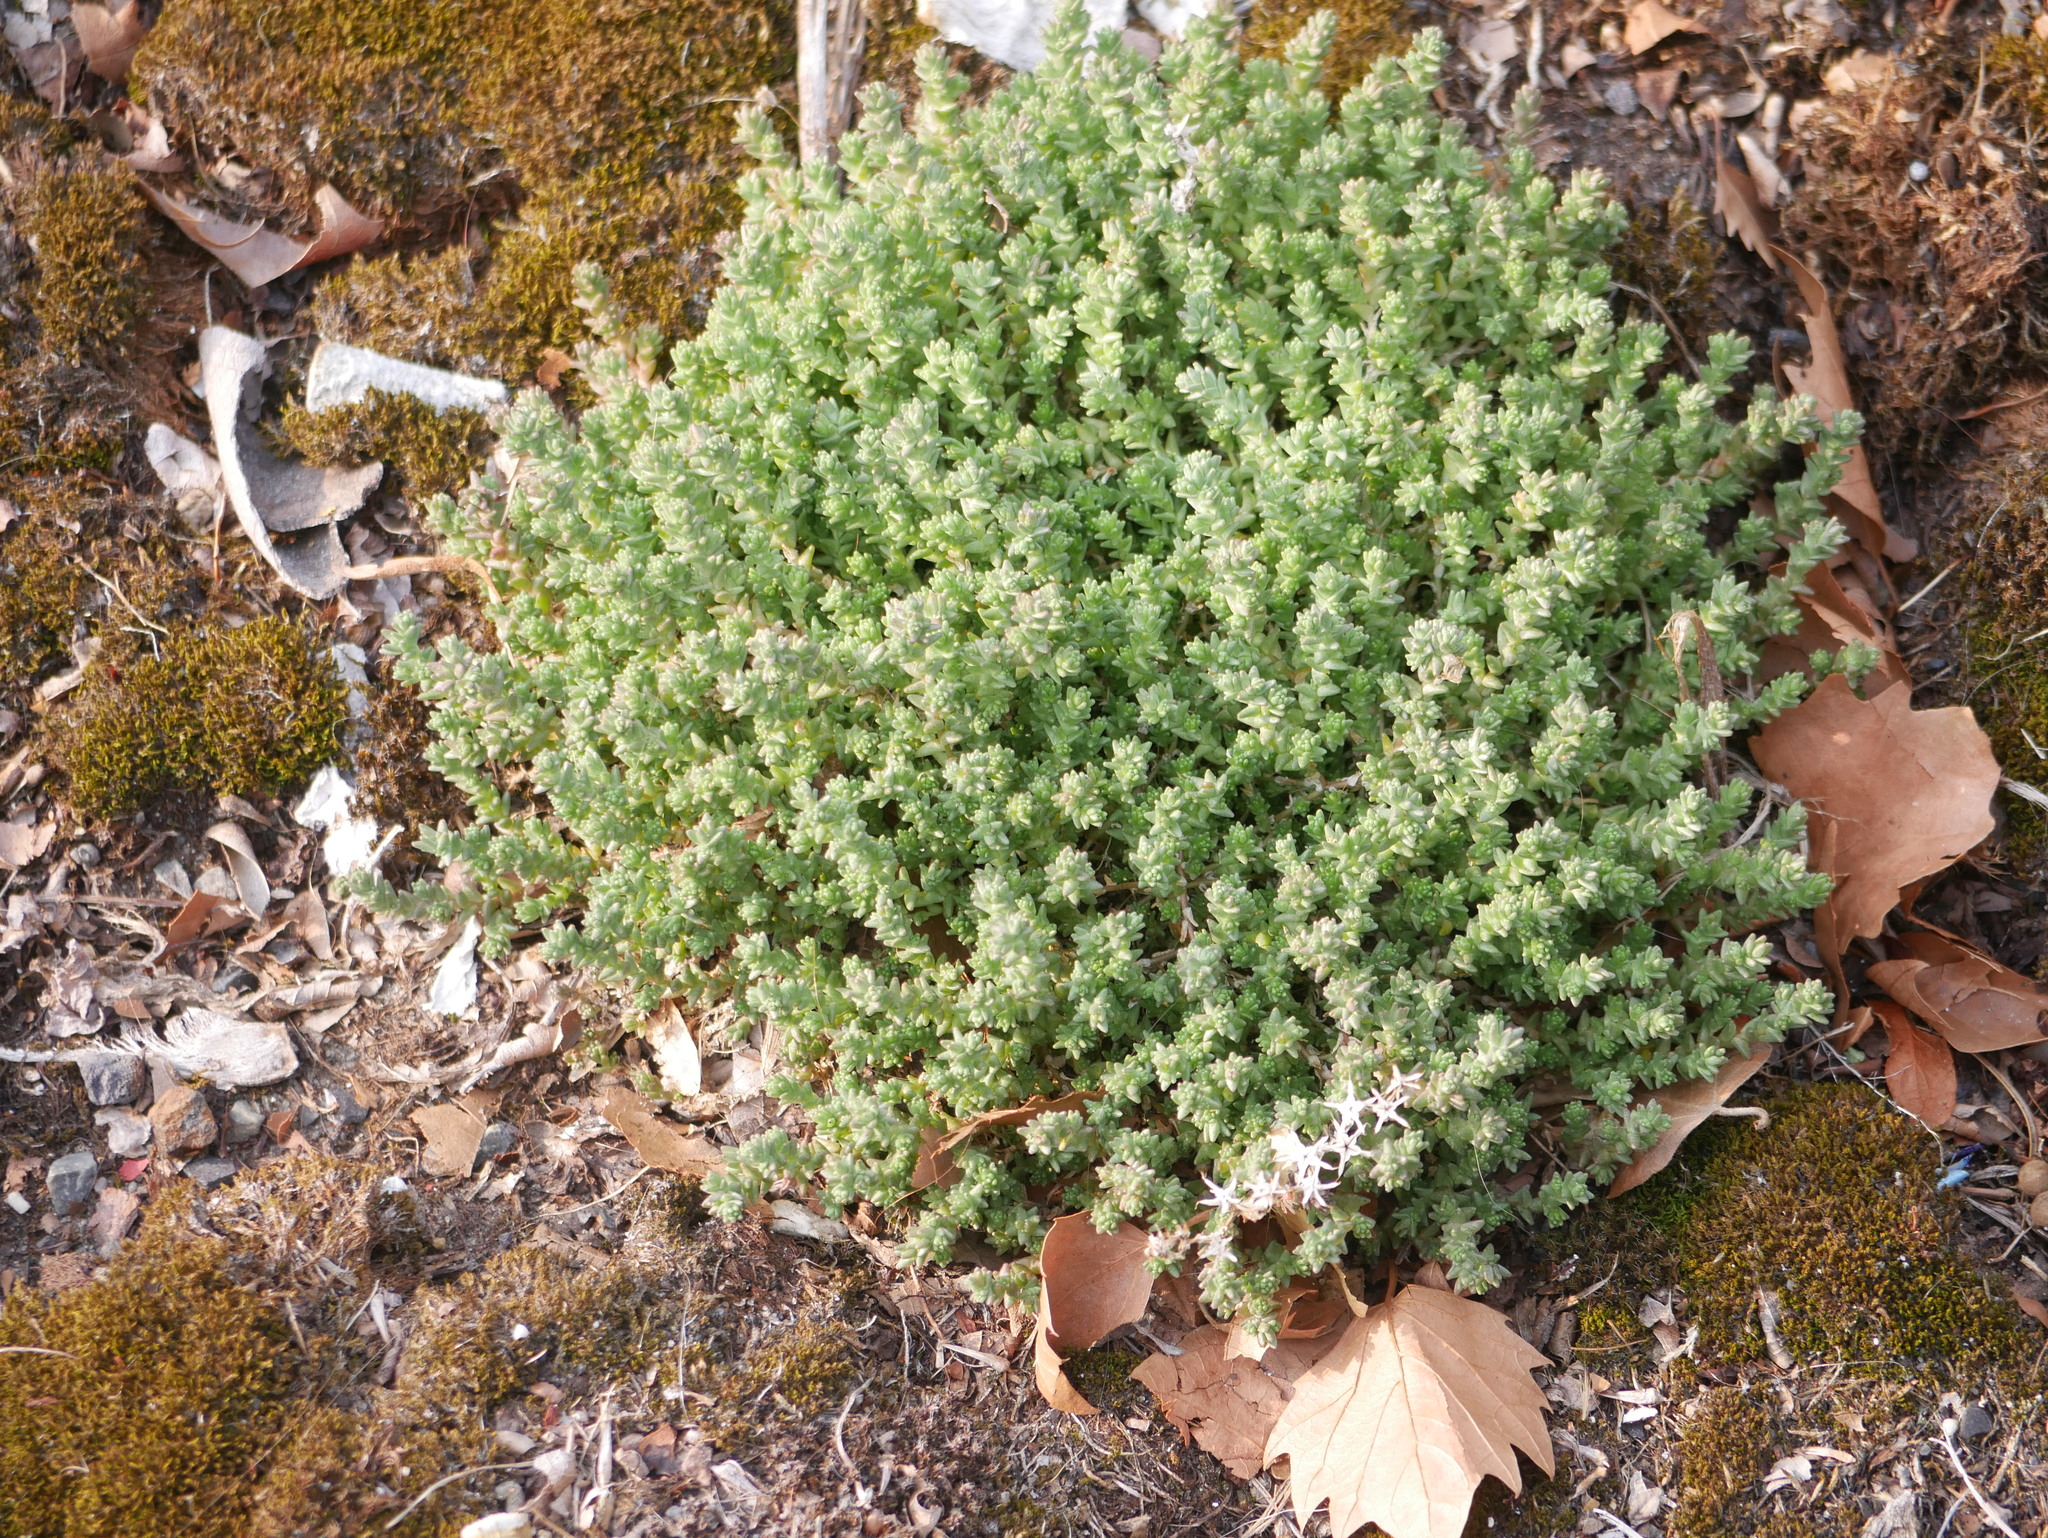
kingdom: Plantae
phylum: Tracheophyta
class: Magnoliopsida
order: Saxifragales
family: Crassulaceae
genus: Sedum
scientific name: Sedum acre
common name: Biting stonecrop
